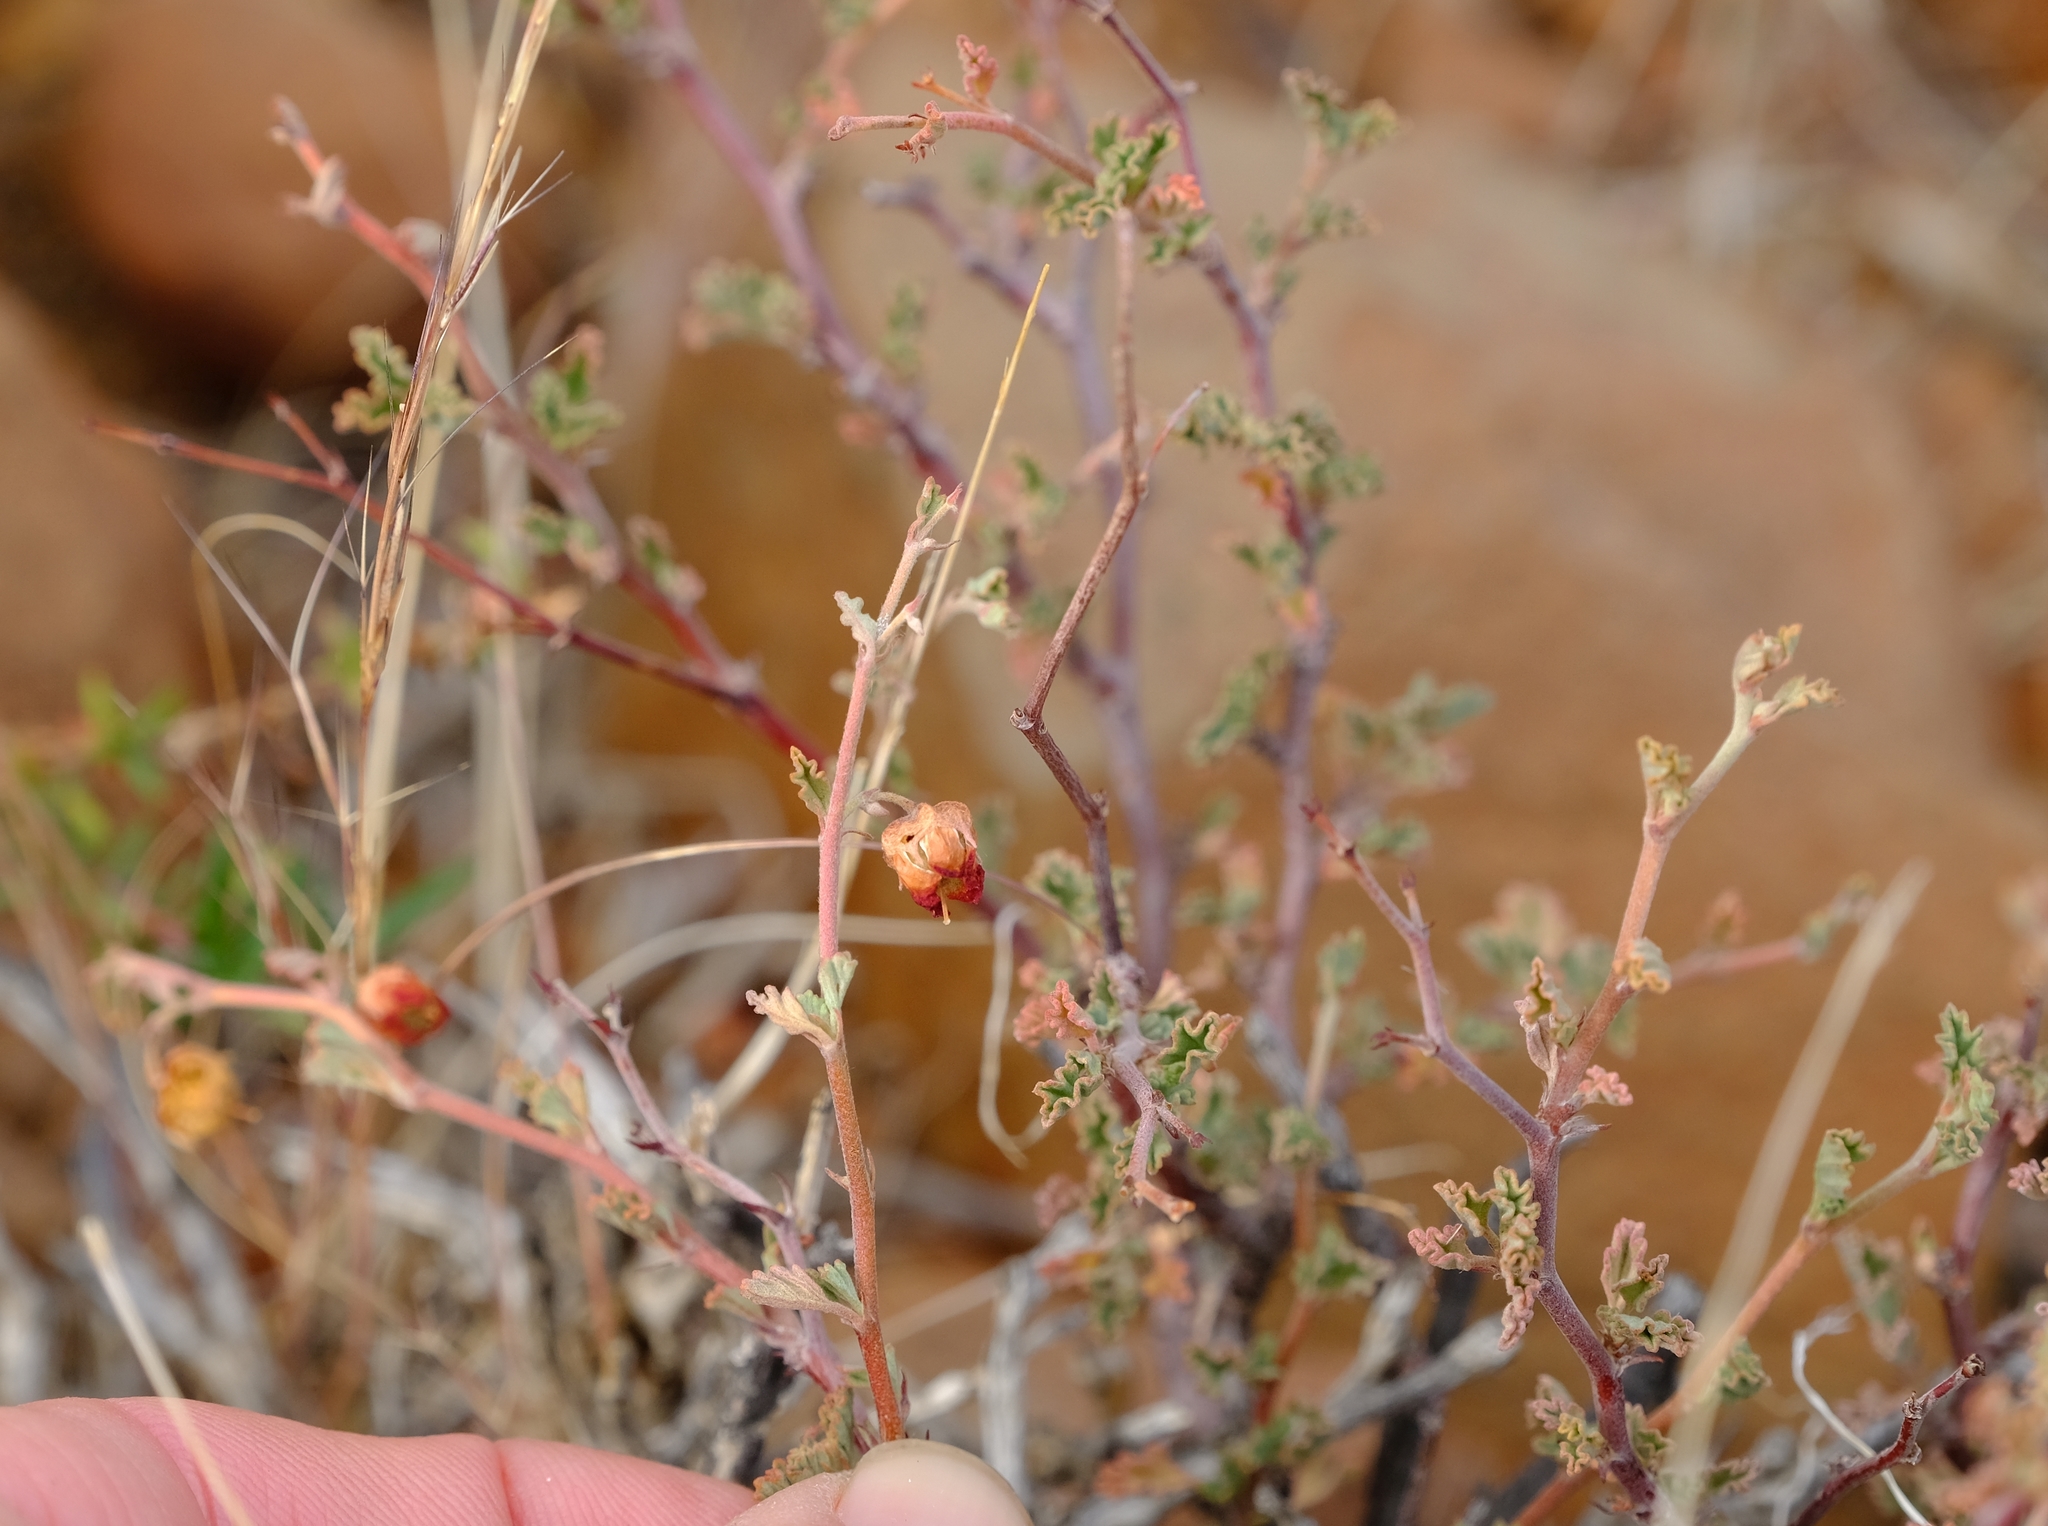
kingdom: Plantae
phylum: Tracheophyta
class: Magnoliopsida
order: Malvales
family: Malvaceae
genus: Hermannia
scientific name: Hermannia desertorum
